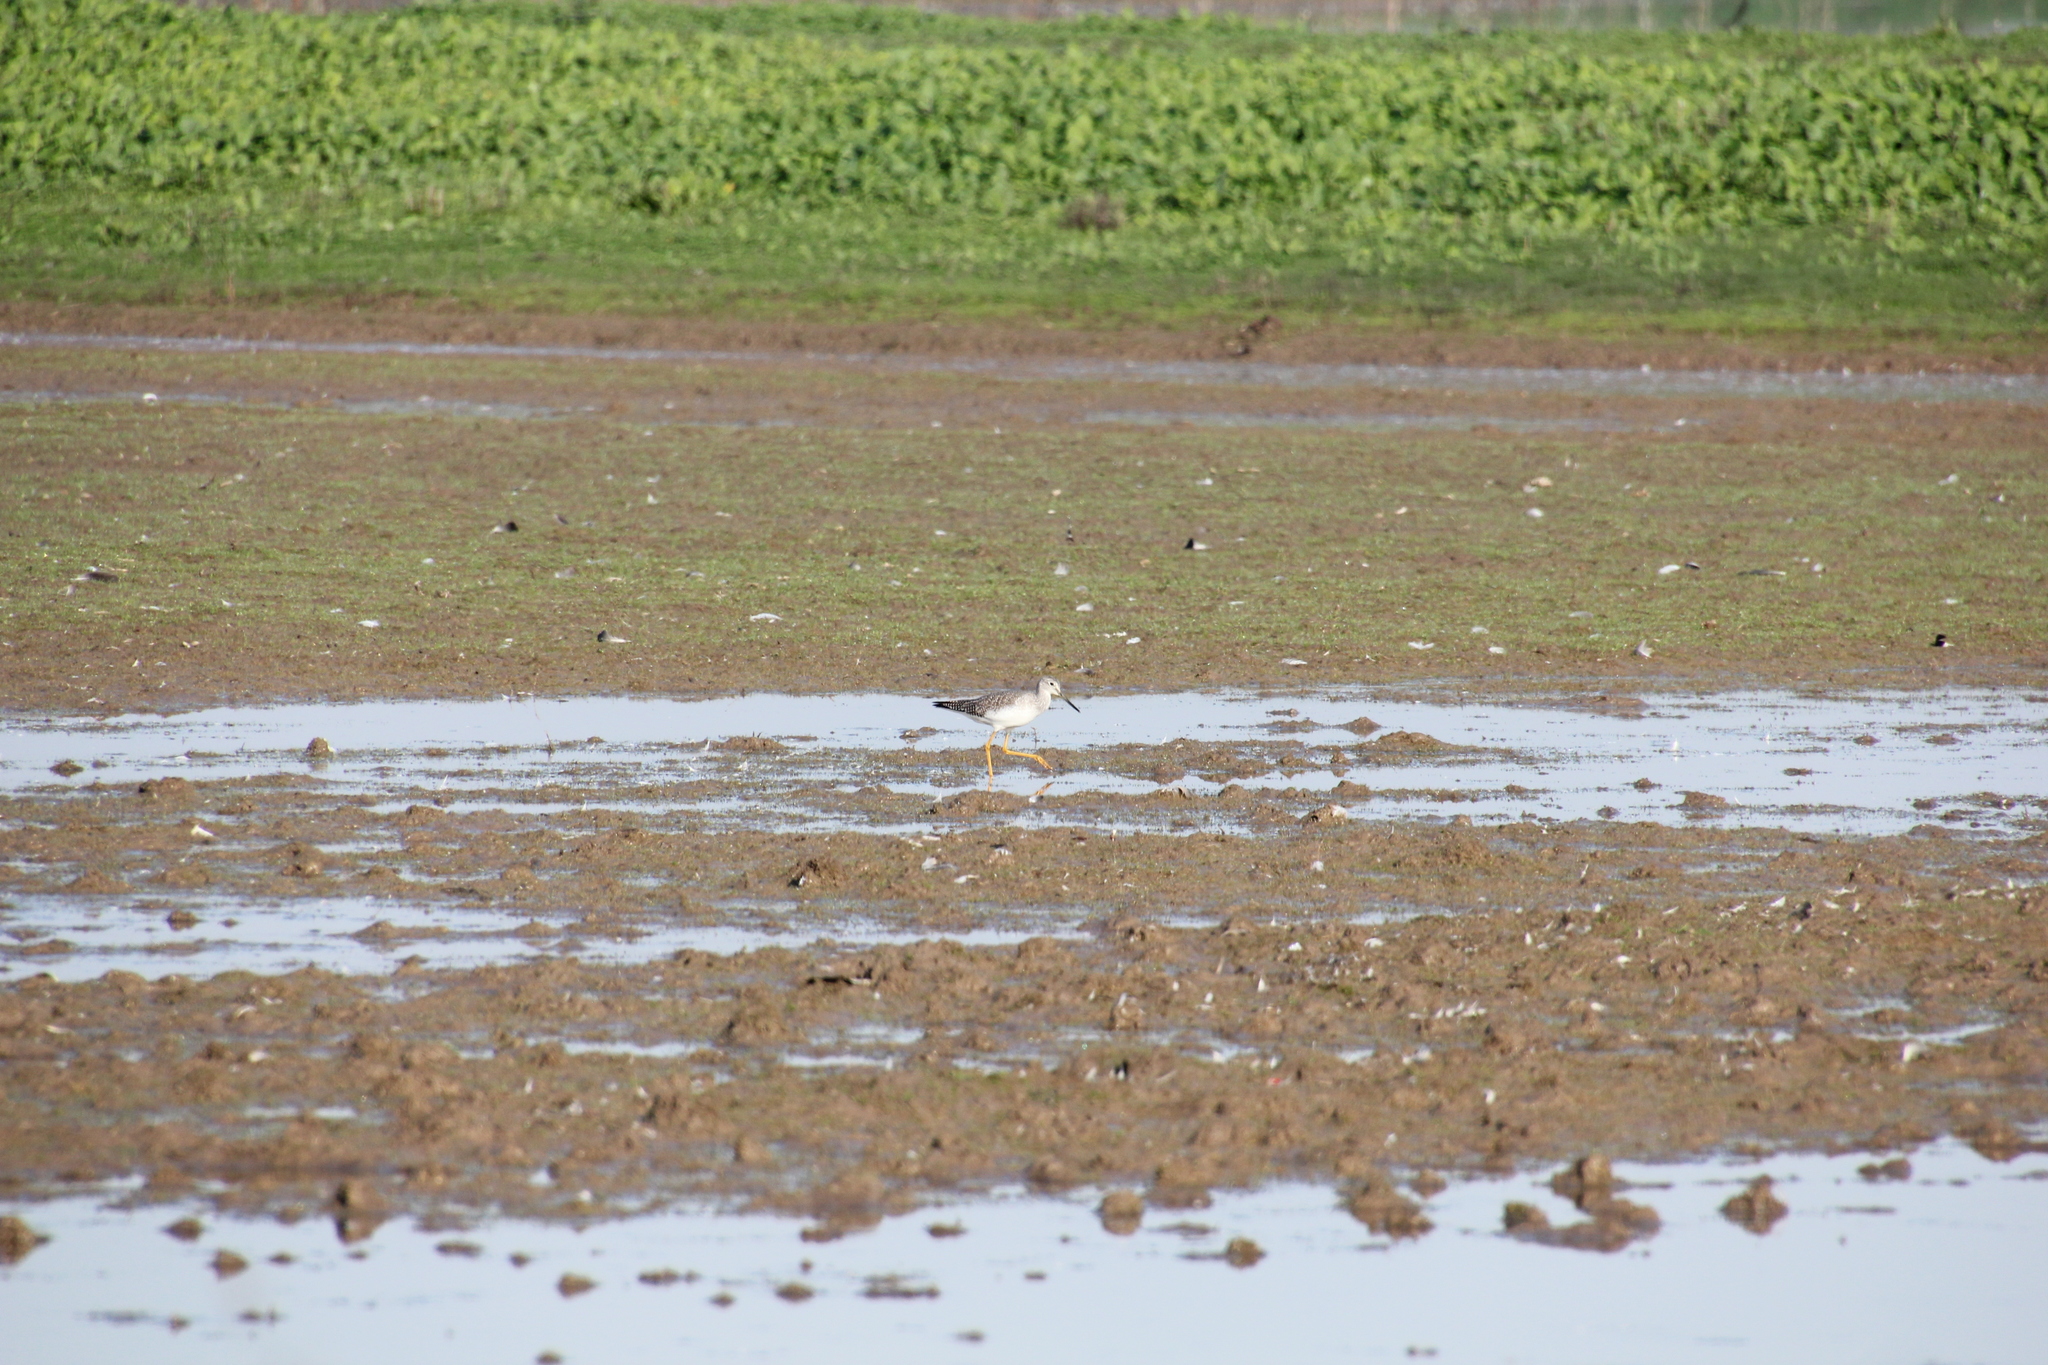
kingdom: Animalia
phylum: Chordata
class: Aves
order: Charadriiformes
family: Scolopacidae
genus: Tringa
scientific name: Tringa melanoleuca
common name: Greater yellowlegs
